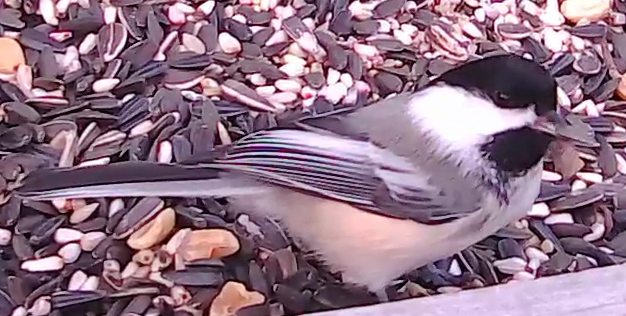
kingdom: Animalia
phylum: Chordata
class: Aves
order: Passeriformes
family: Paridae
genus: Poecile
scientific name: Poecile atricapillus
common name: Black-capped chickadee
